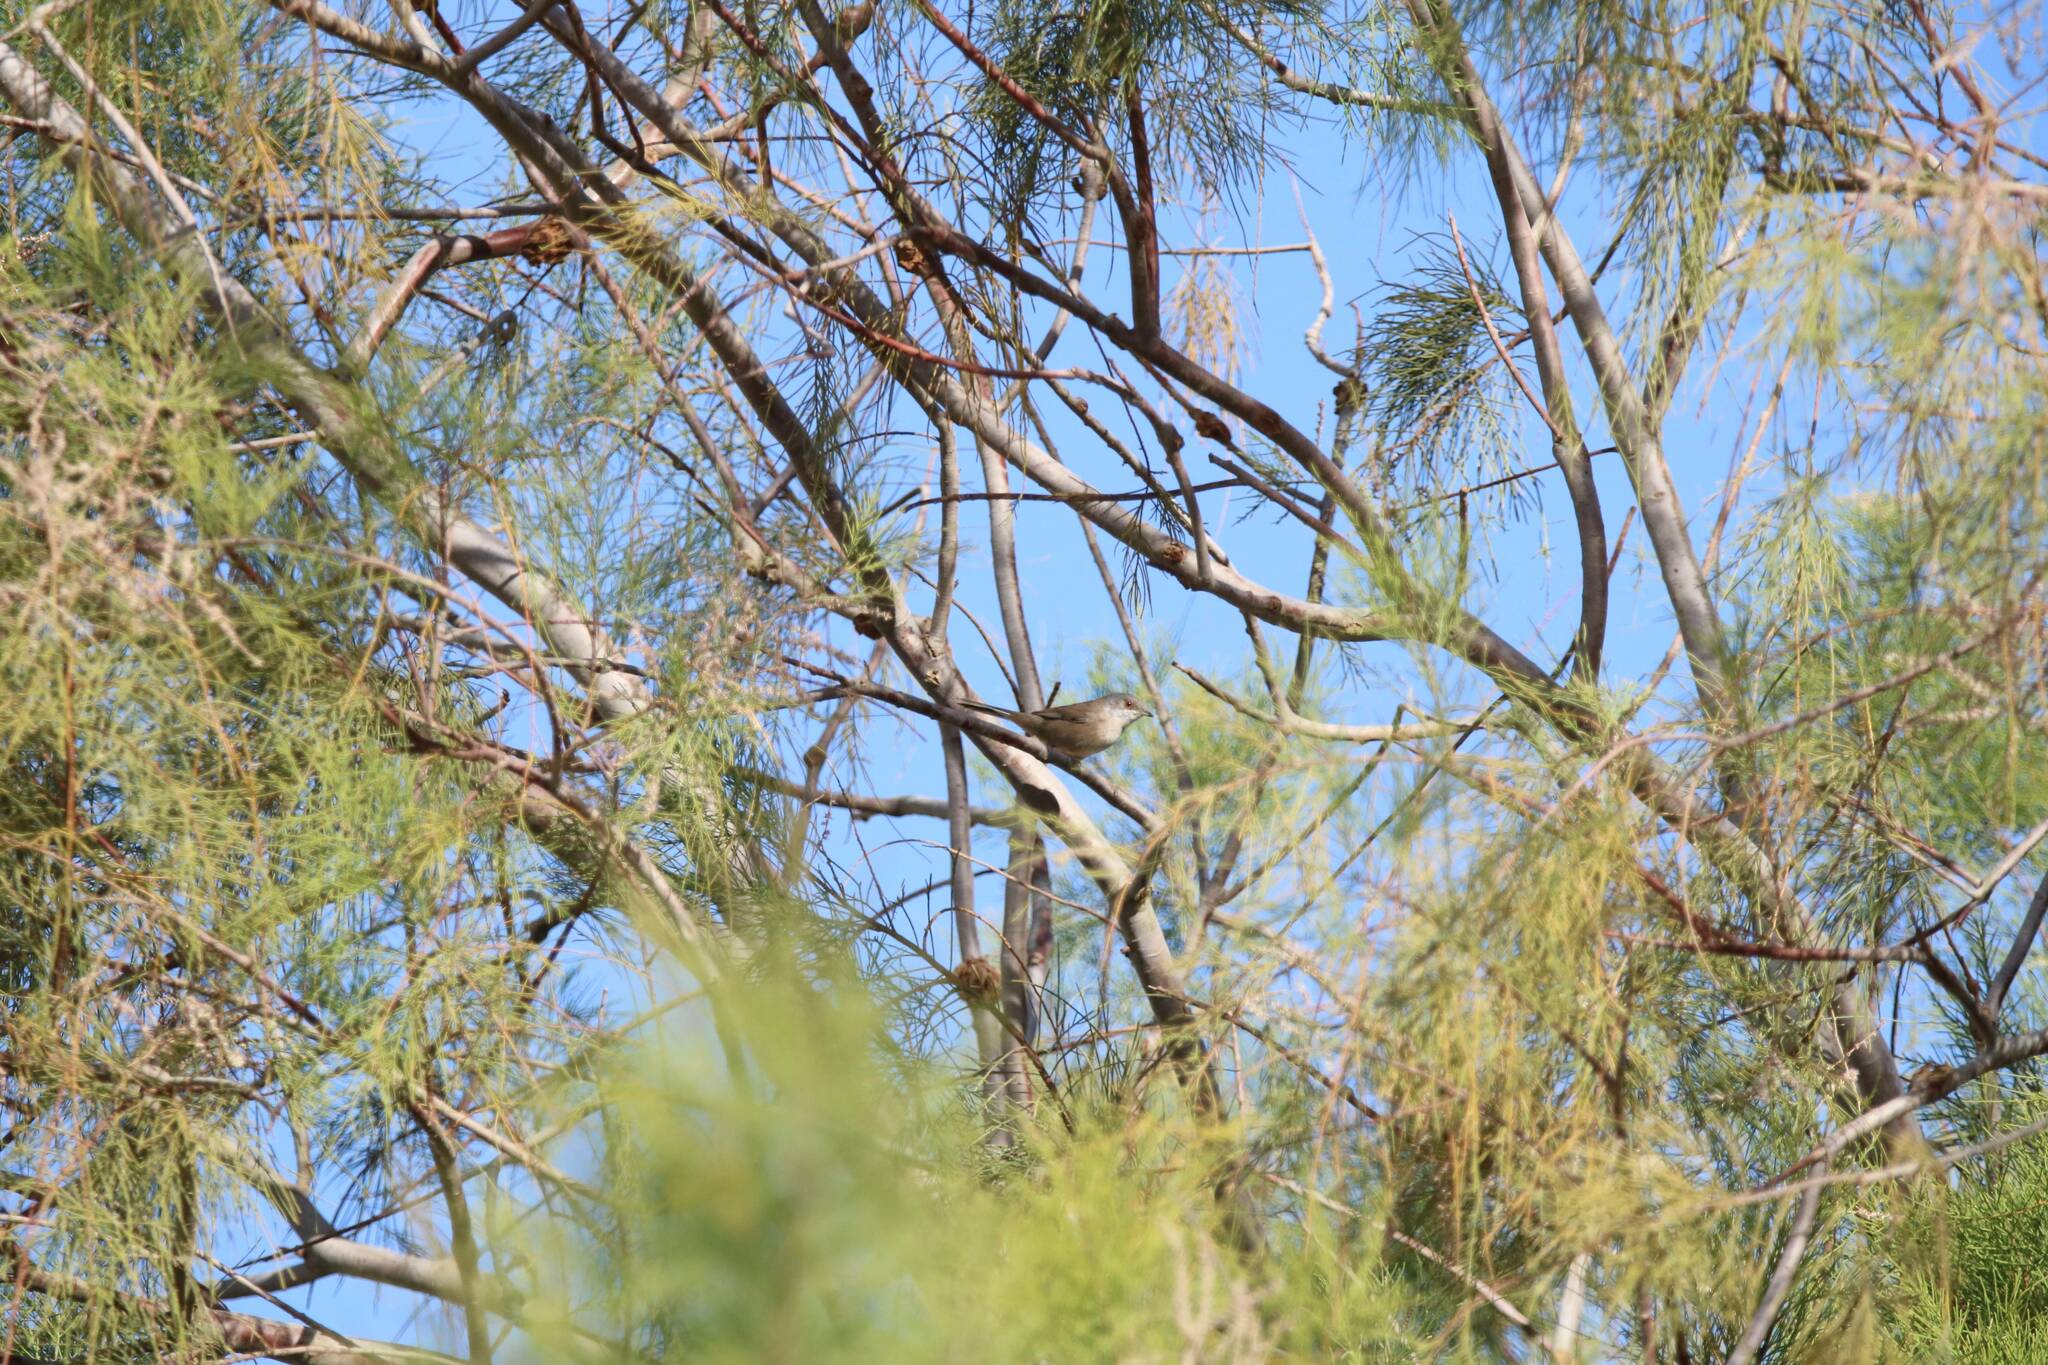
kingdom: Animalia
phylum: Chordata
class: Aves
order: Passeriformes
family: Sylviidae
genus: Curruca
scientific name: Curruca melanocephala
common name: Sardinian warbler
